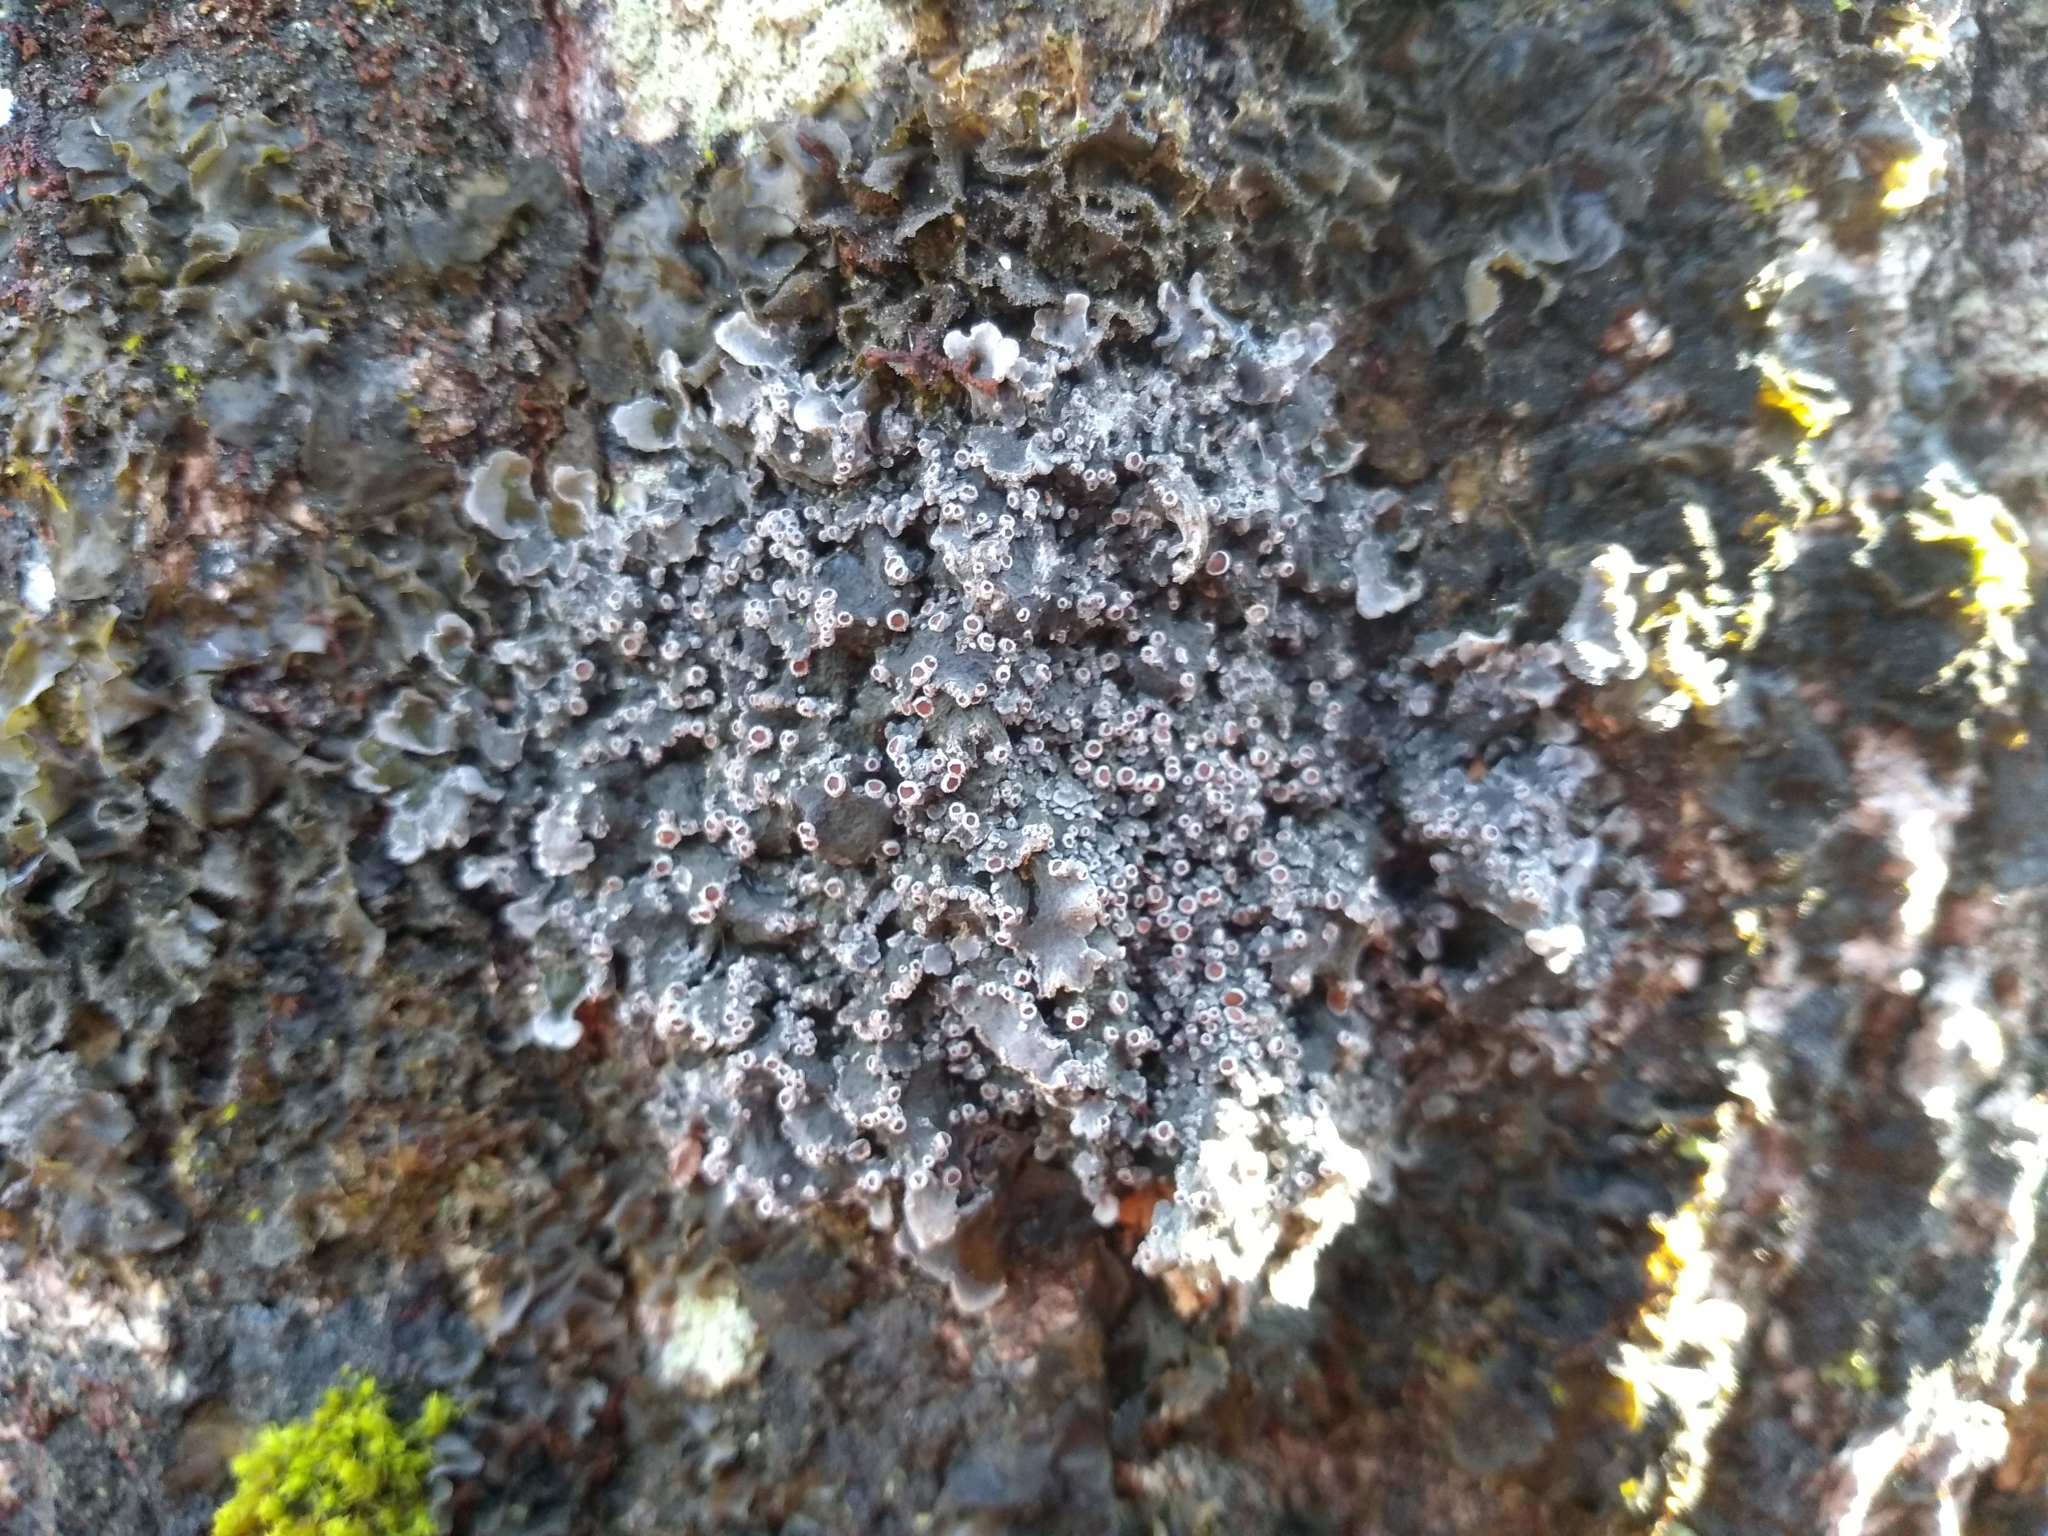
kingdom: Fungi
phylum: Ascomycota
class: Lecanoromycetes
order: Peltigerales
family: Pannariaceae
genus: Pannaria
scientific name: Pannaria lurida
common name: Wrinkled shingle lichen
